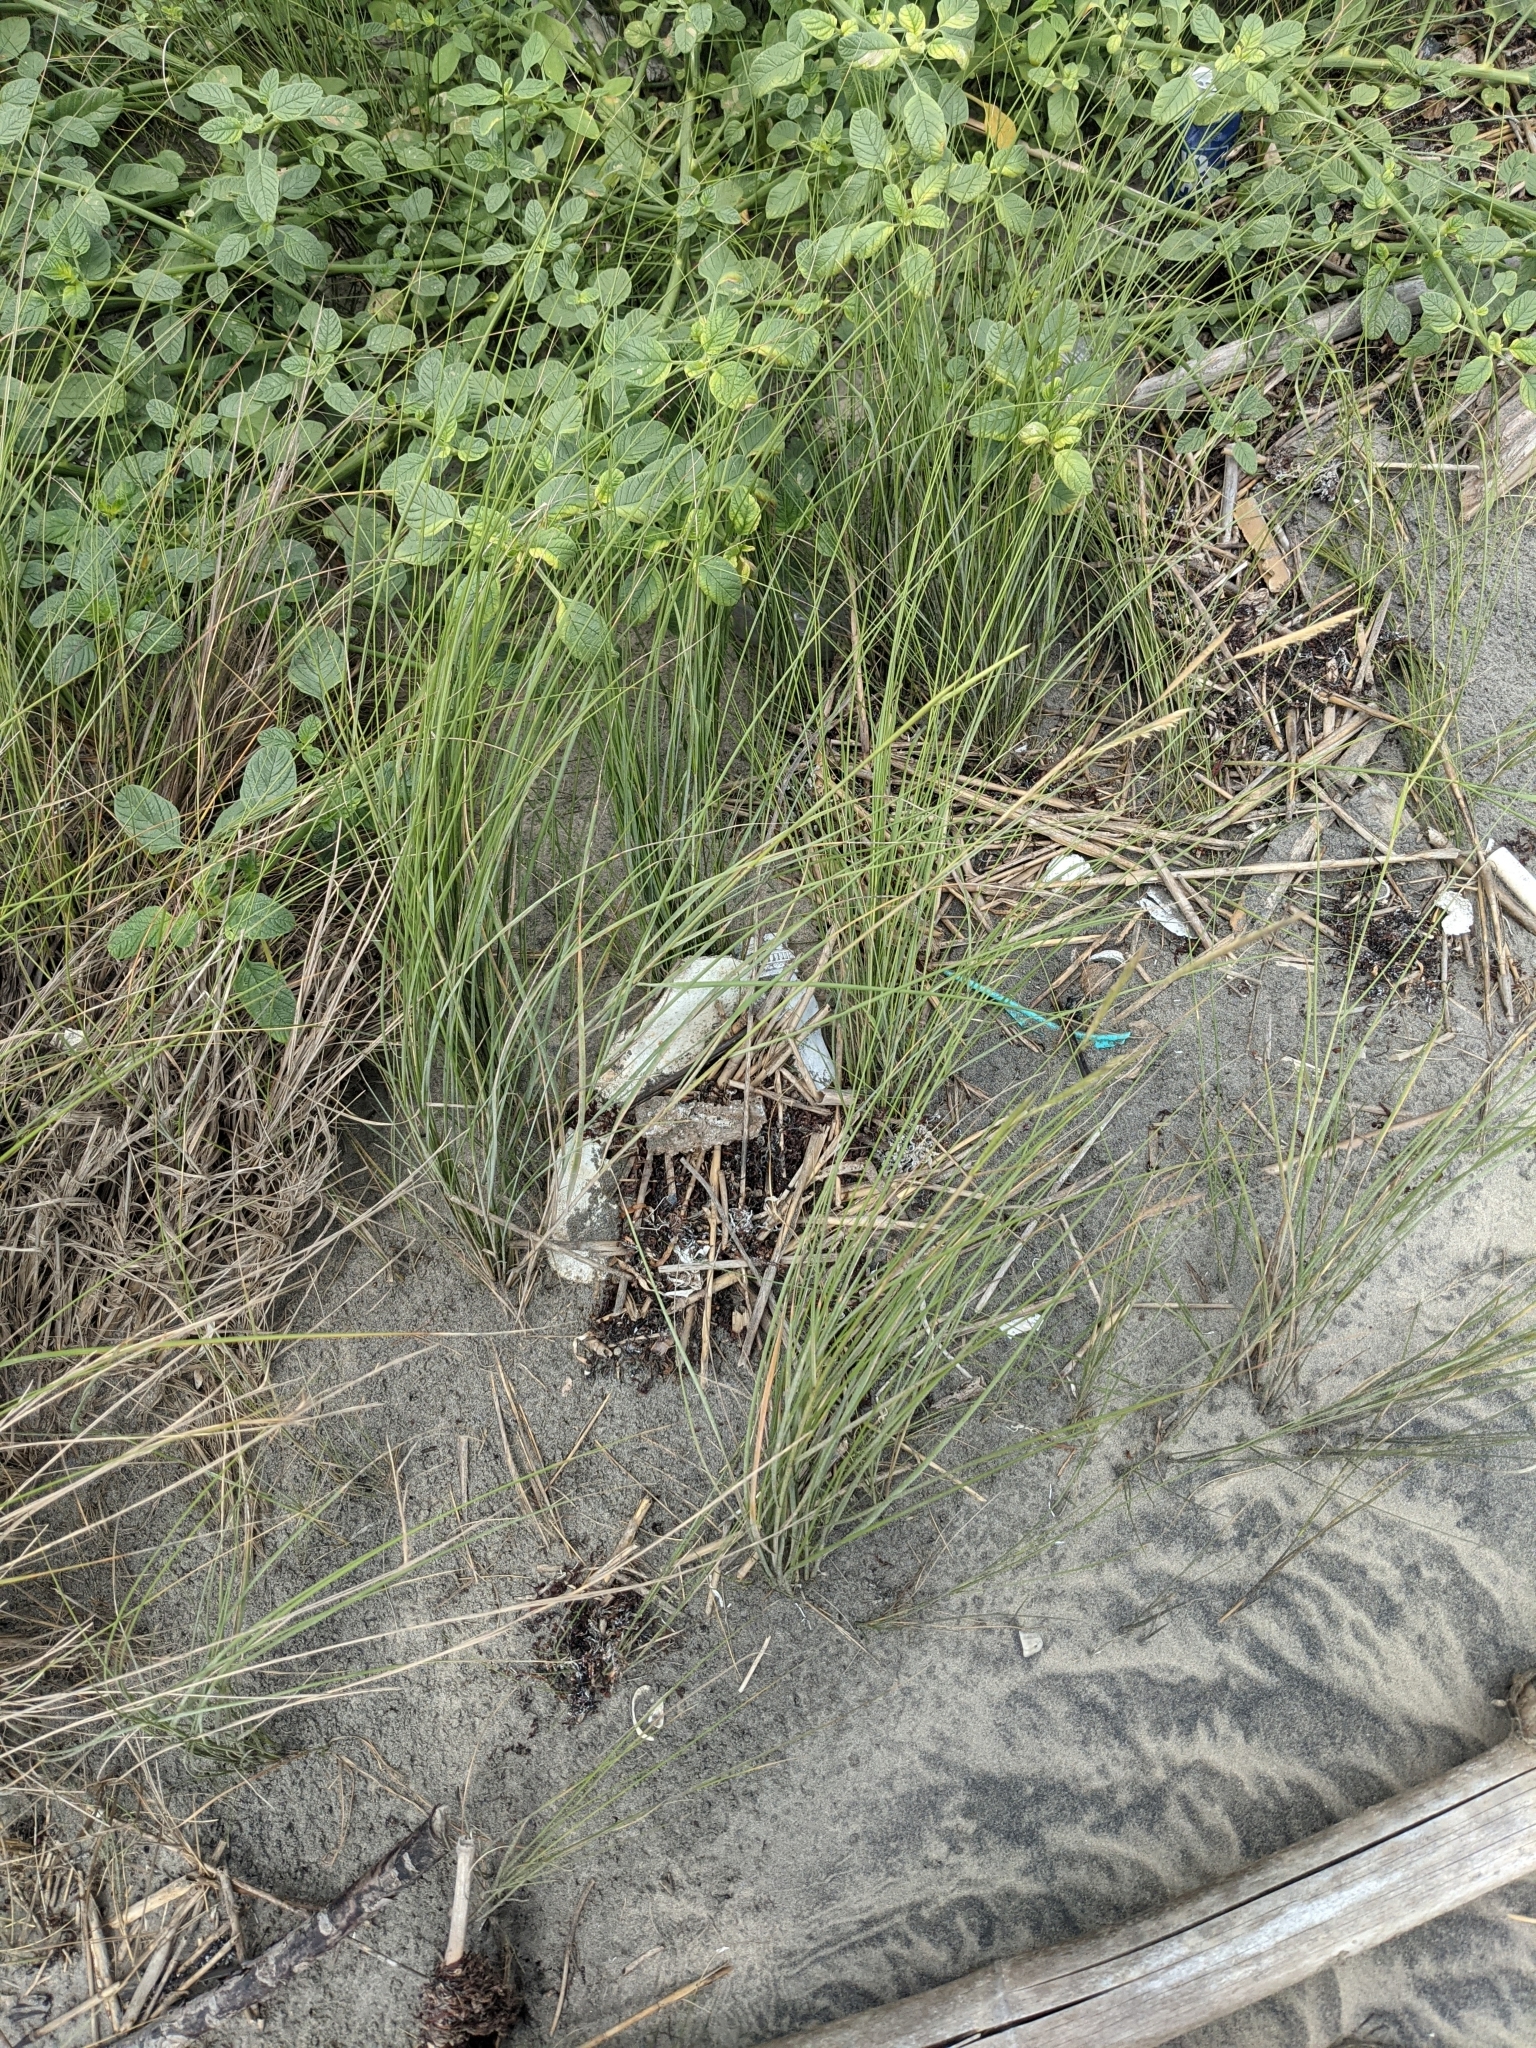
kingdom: Plantae
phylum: Tracheophyta
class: Liliopsida
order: Poales
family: Poaceae
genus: Sporobolus
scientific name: Sporobolus pumilus
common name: Highwater grass
